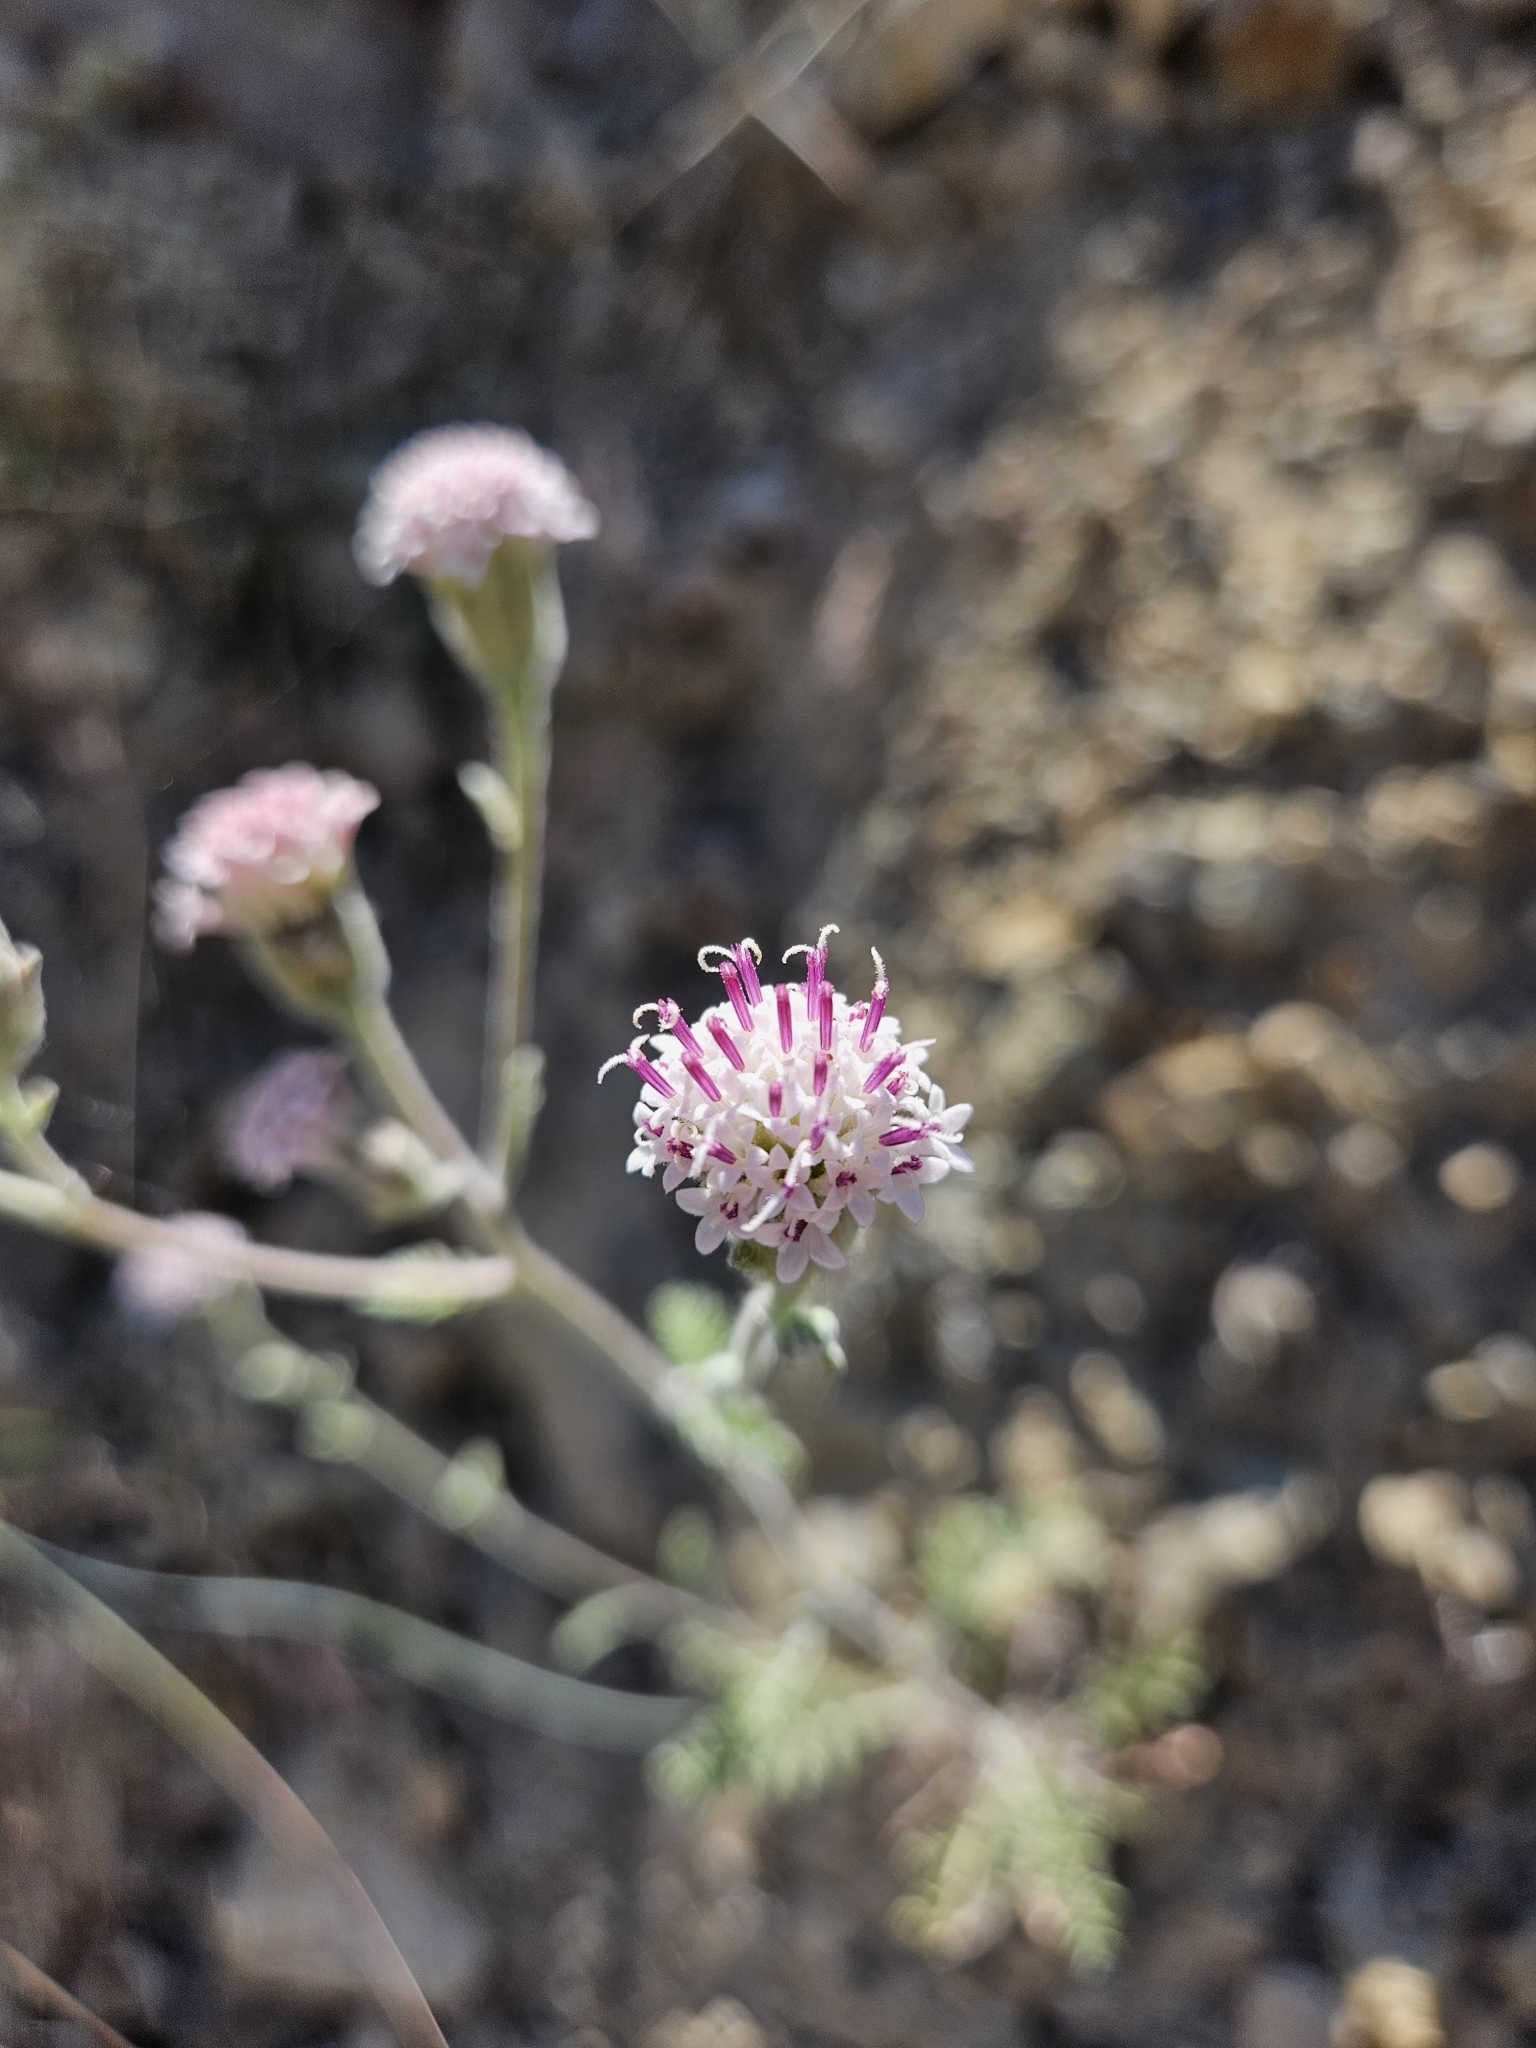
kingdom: Plantae
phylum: Tracheophyta
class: Magnoliopsida
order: Asterales
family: Asteraceae
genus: Chaenactis
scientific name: Chaenactis douglasii
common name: Hoary pincushion
